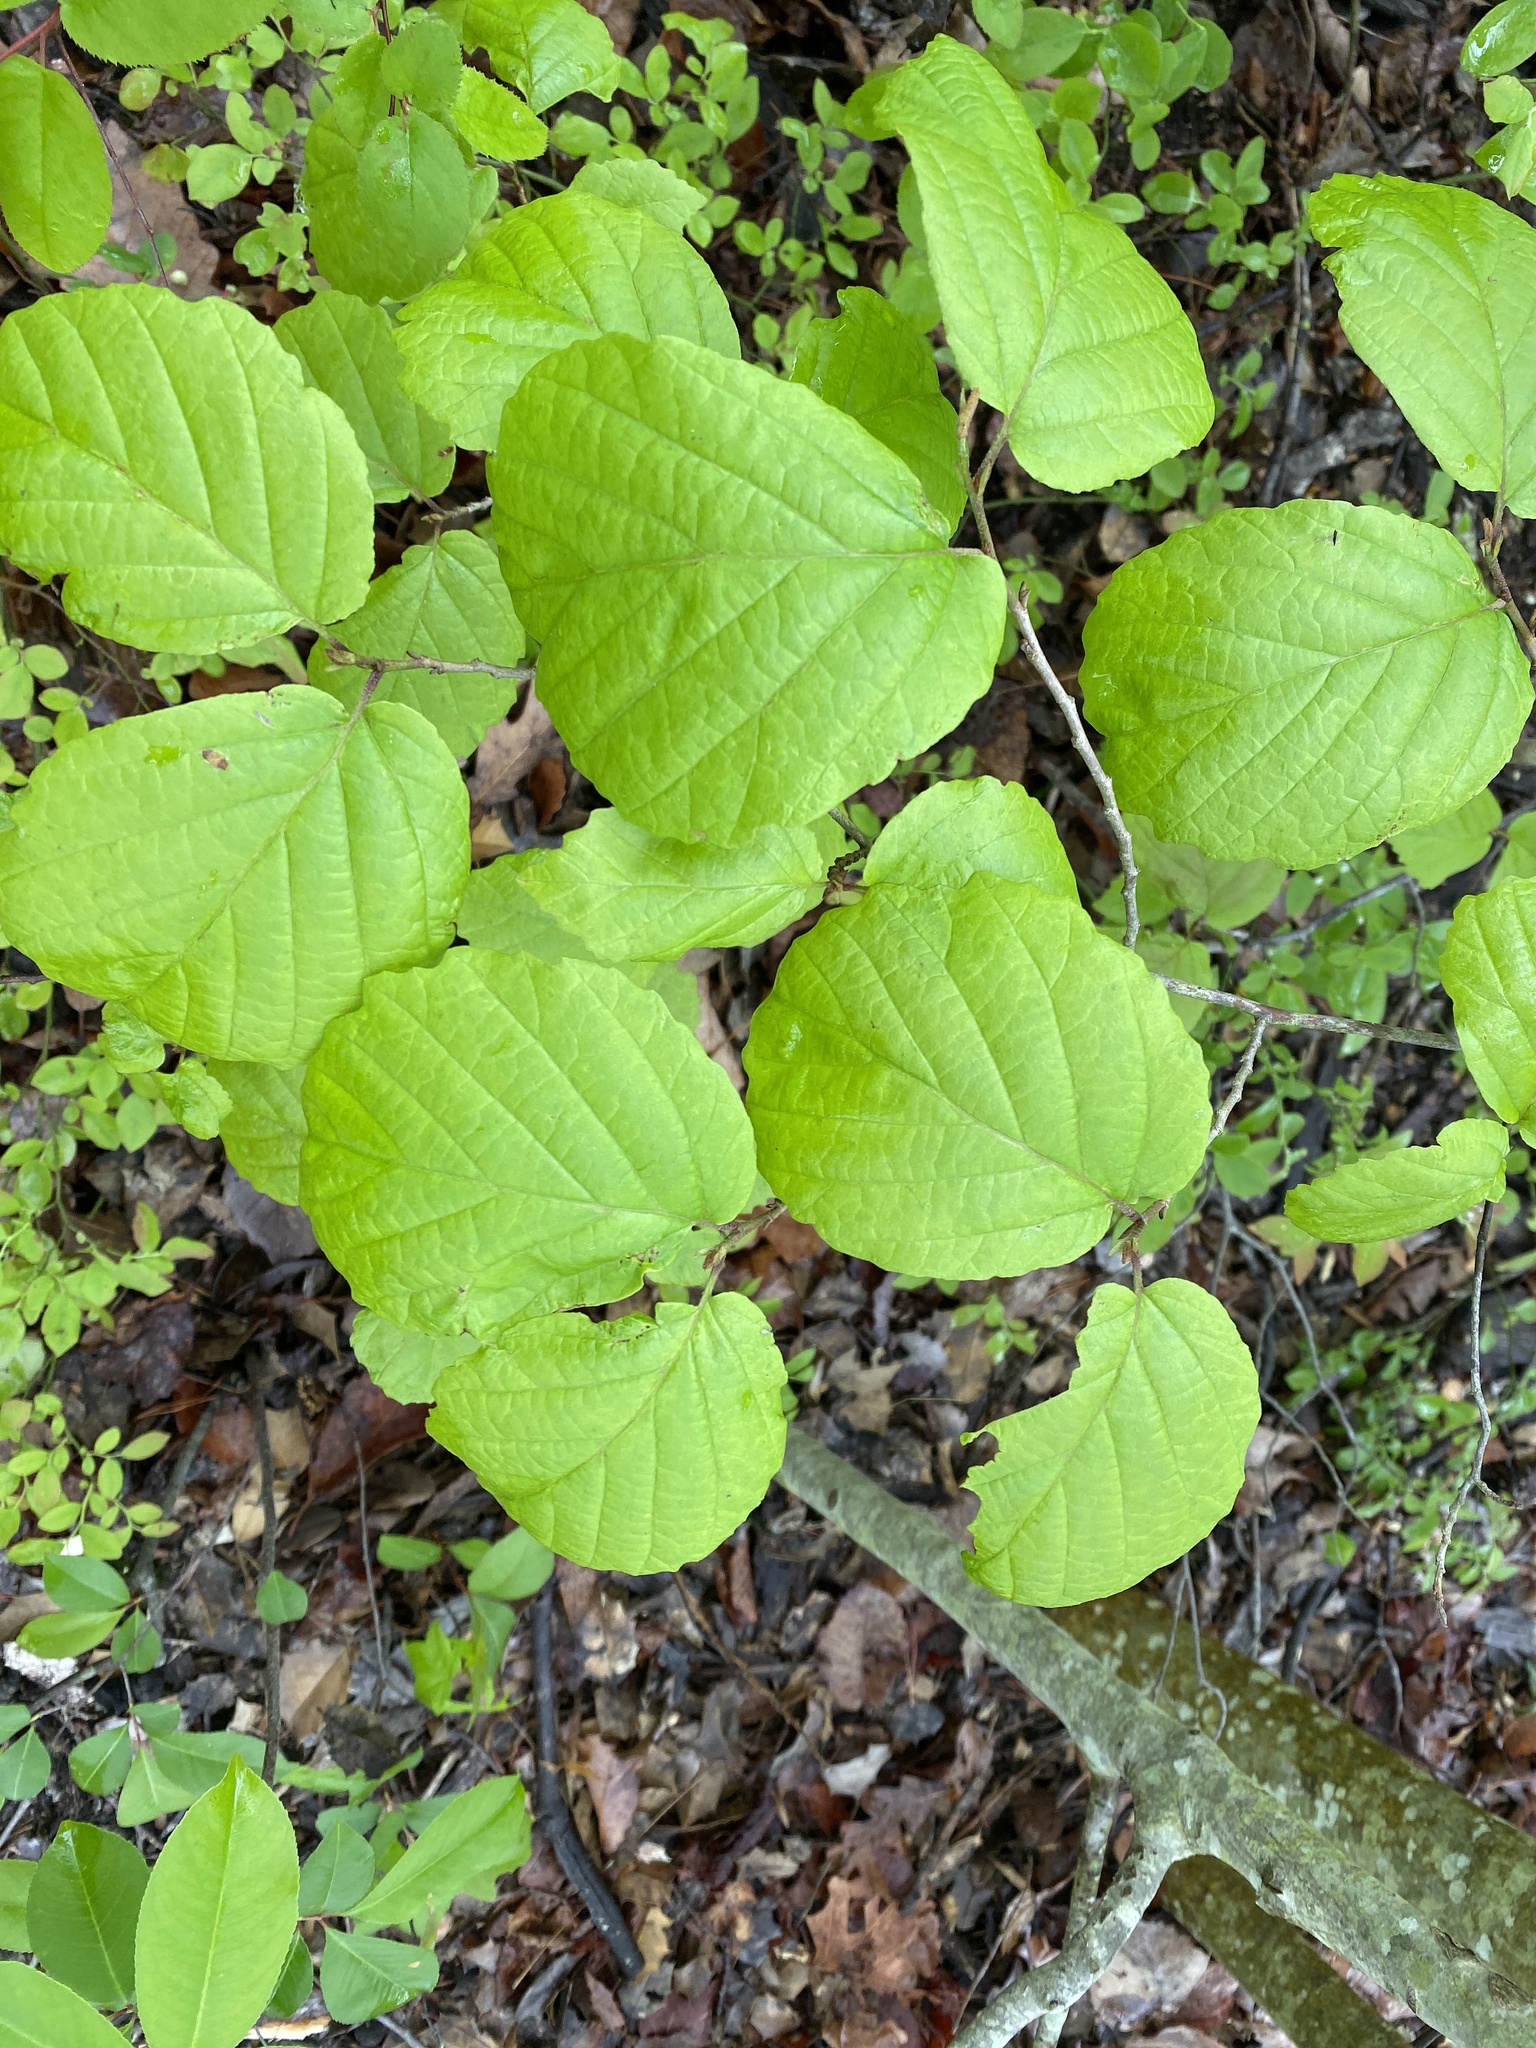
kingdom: Plantae
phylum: Tracheophyta
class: Magnoliopsida
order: Saxifragales
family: Hamamelidaceae
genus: Hamamelis
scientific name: Hamamelis virginiana
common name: Witch-hazel
